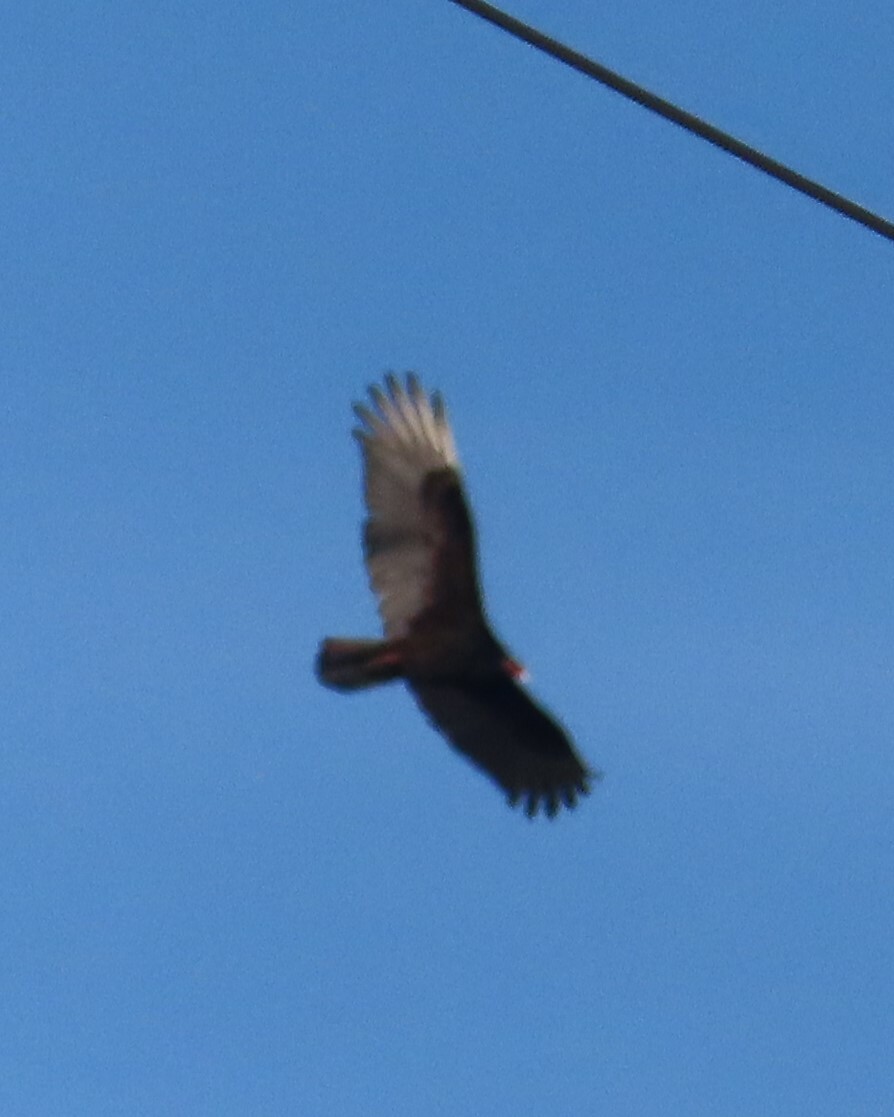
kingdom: Animalia
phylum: Chordata
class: Aves
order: Accipitriformes
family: Cathartidae
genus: Cathartes
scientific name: Cathartes aura
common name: Turkey vulture
